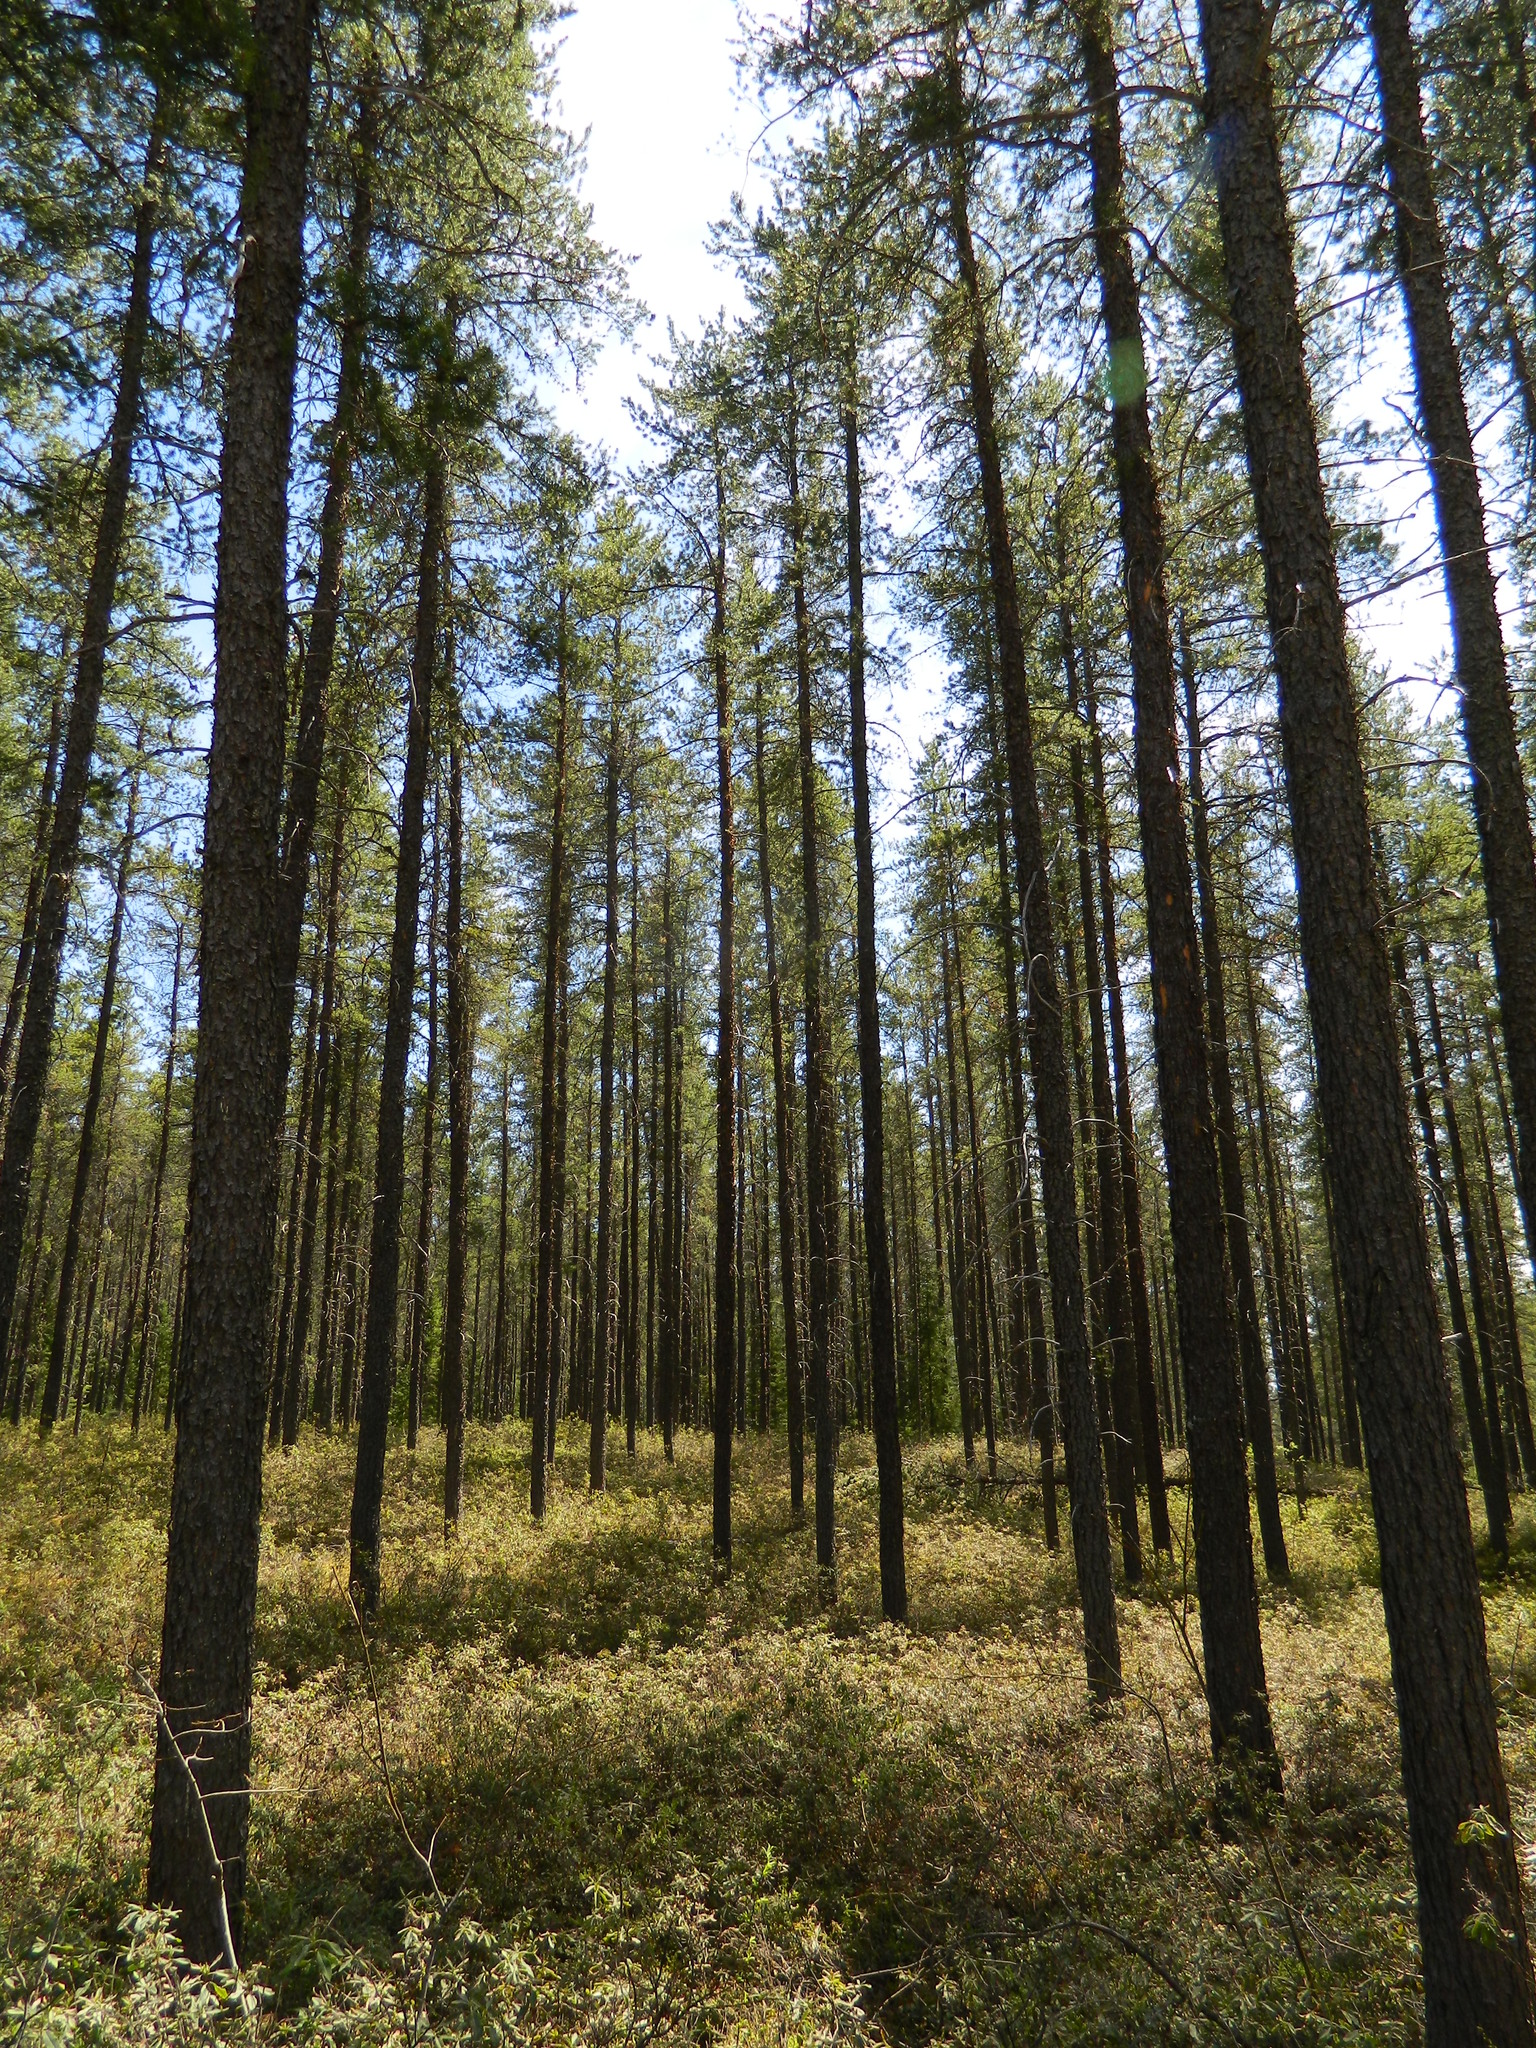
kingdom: Plantae
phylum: Tracheophyta
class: Pinopsida
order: Pinales
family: Pinaceae
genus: Pinus
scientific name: Pinus banksiana
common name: Jack pine
